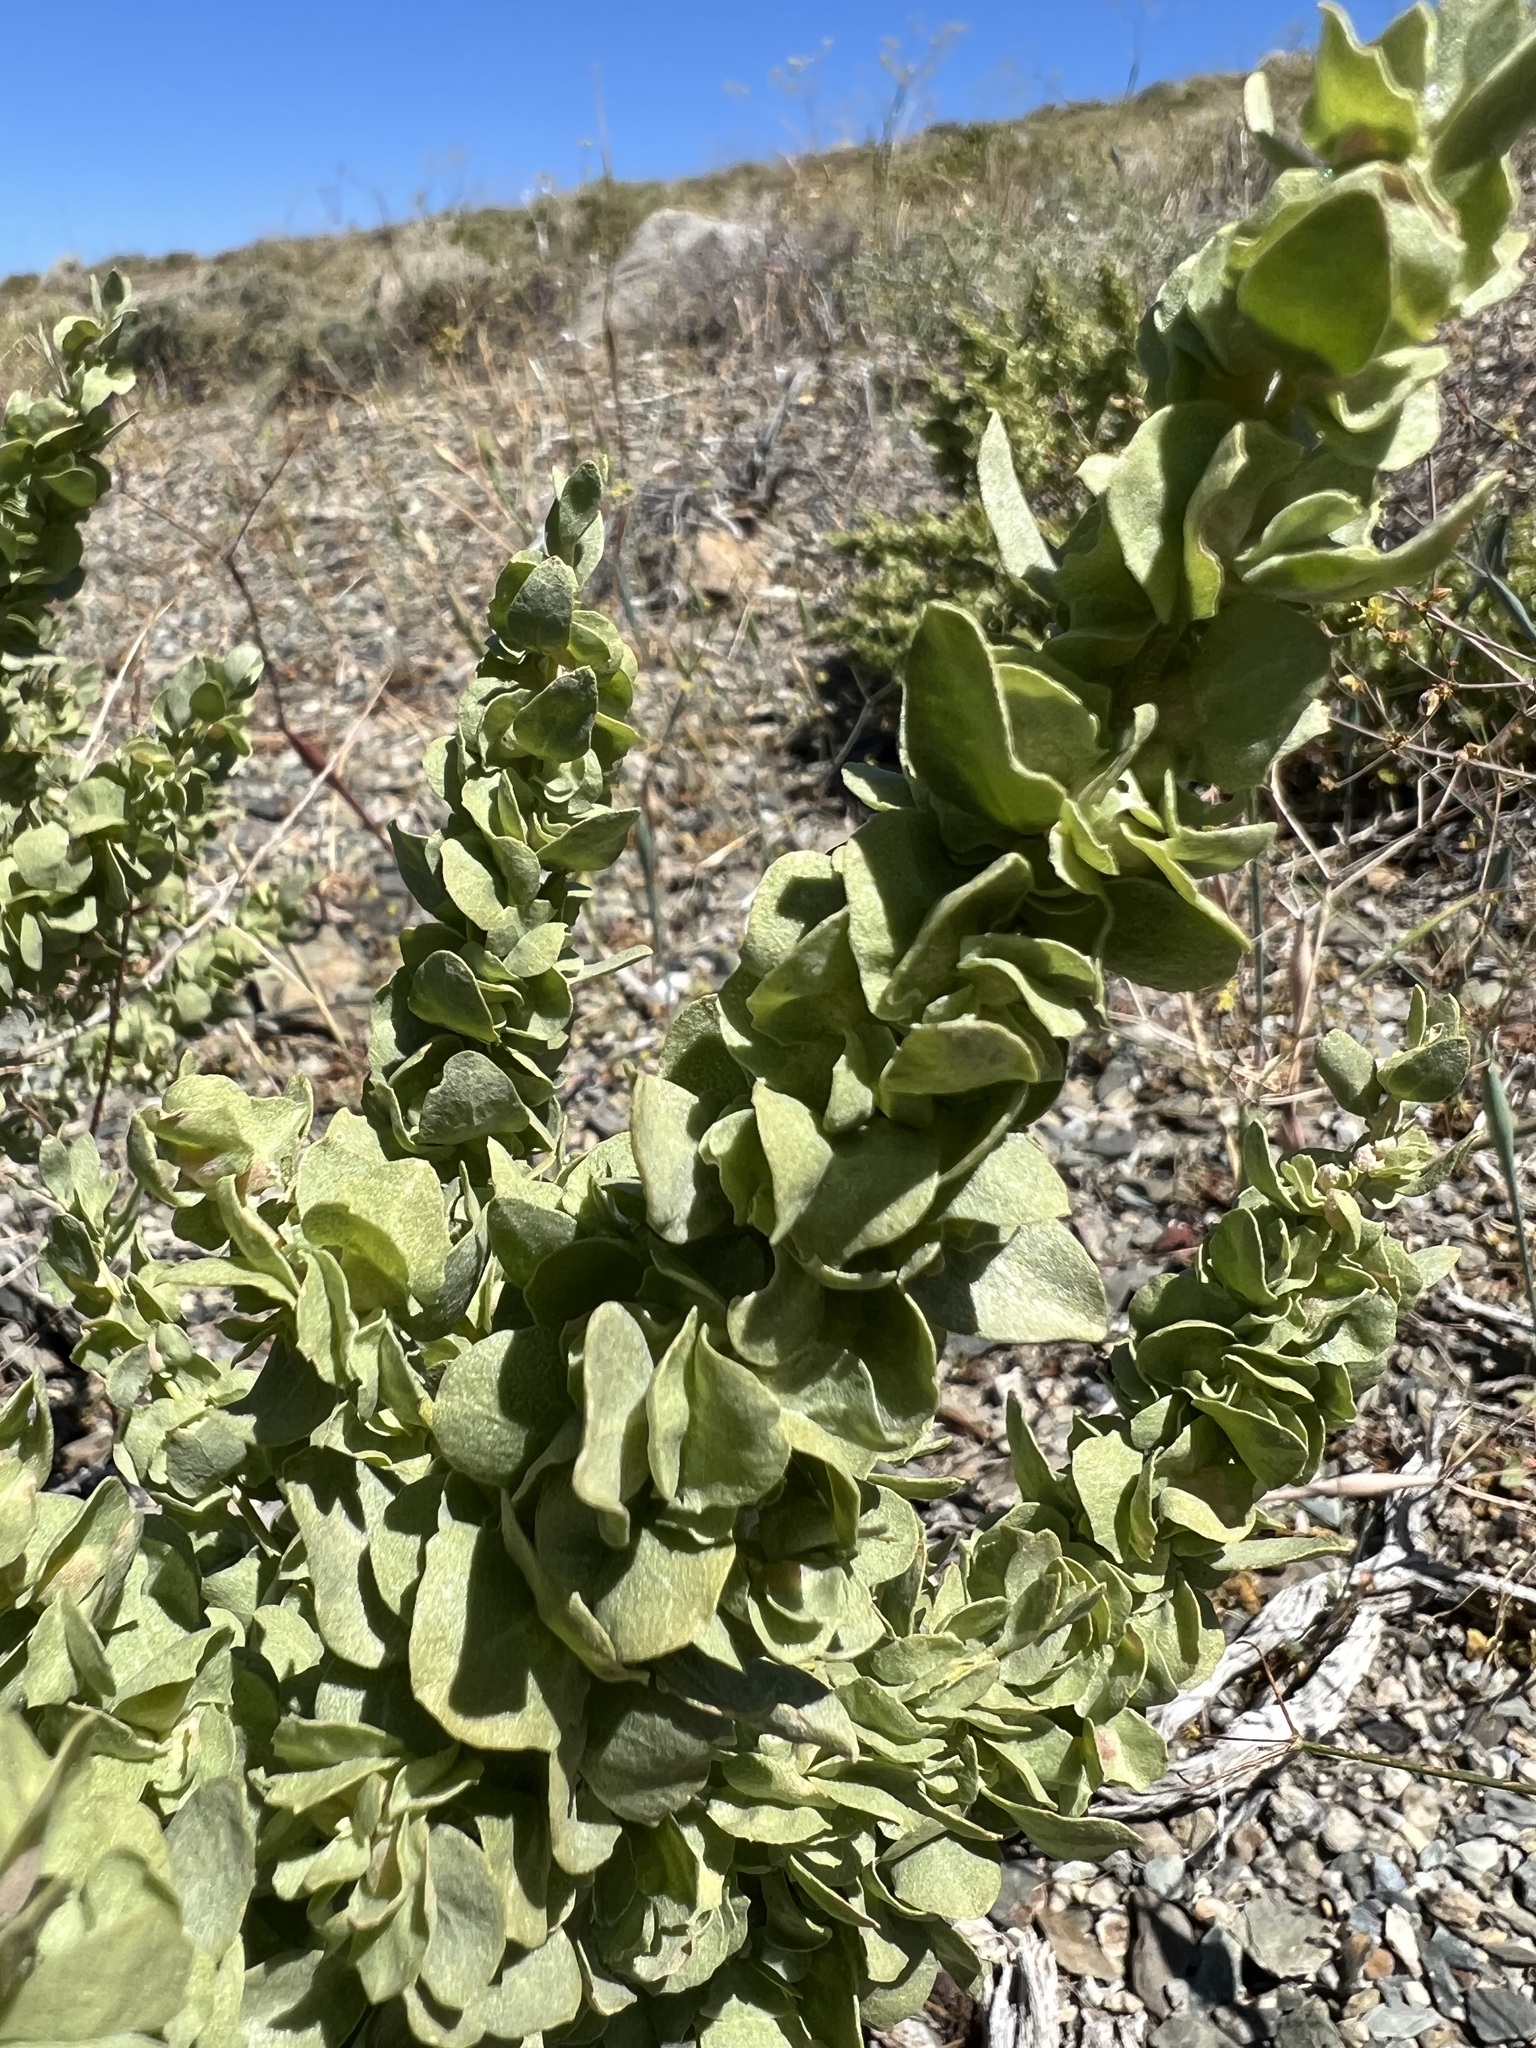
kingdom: Plantae
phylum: Tracheophyta
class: Magnoliopsida
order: Caryophyllales
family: Amaranthaceae
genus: Atriplex
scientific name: Atriplex confertifolia
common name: Shadscale
